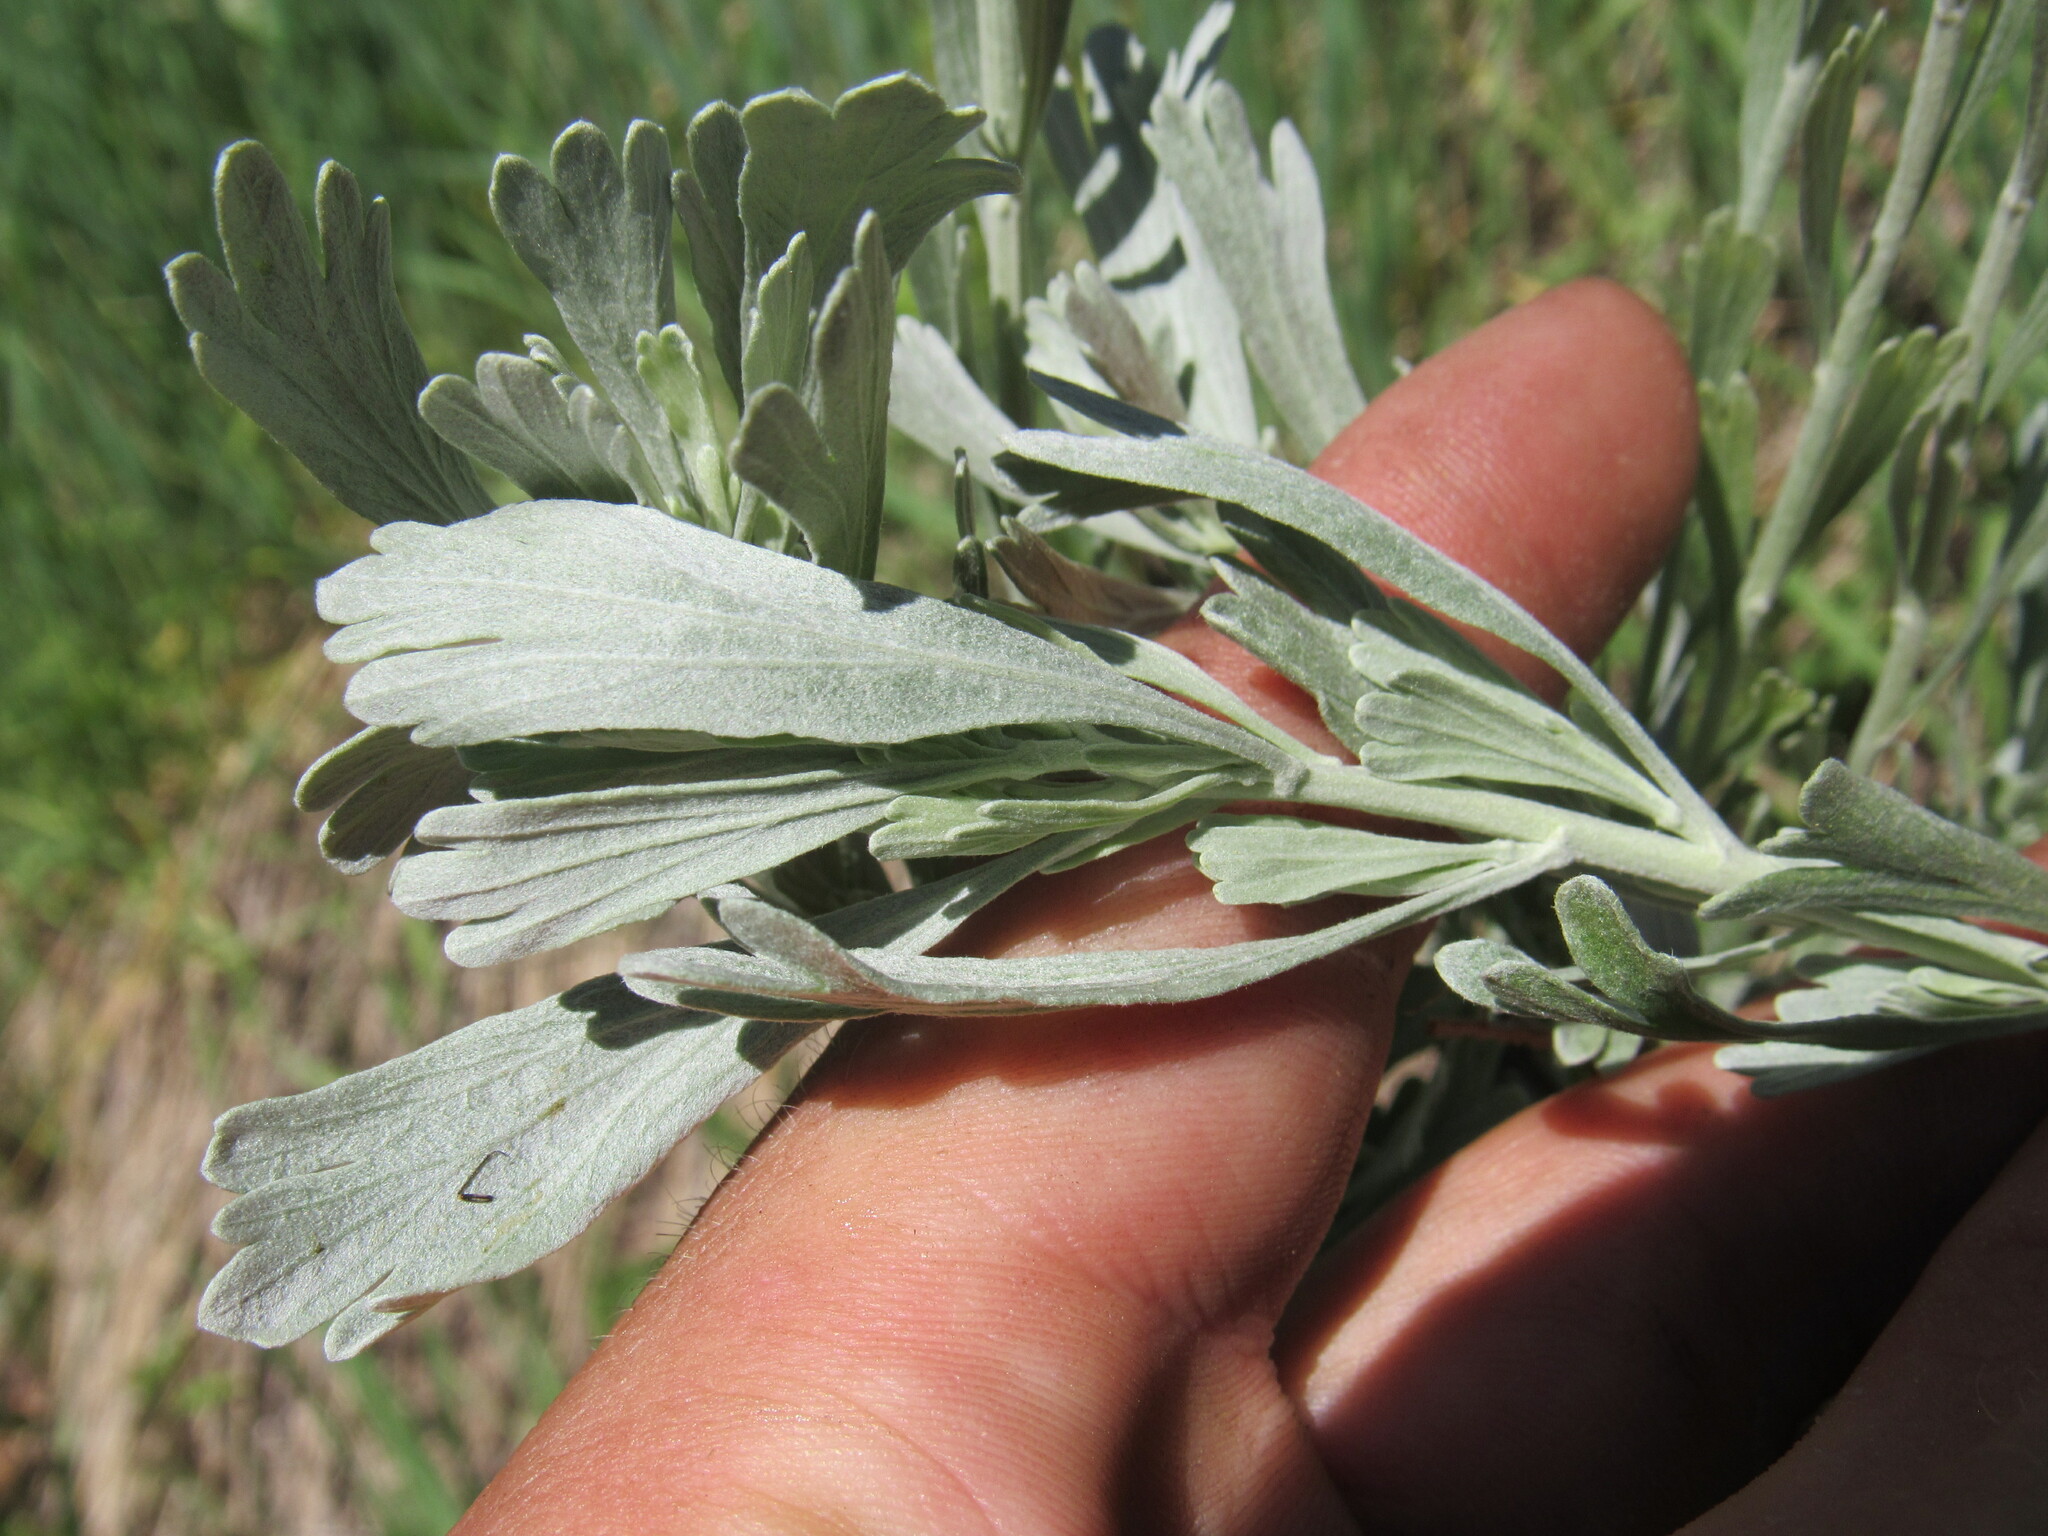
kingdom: Plantae
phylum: Tracheophyta
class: Magnoliopsida
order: Asterales
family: Asteraceae
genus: Artemisia
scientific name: Artemisia tridentata
